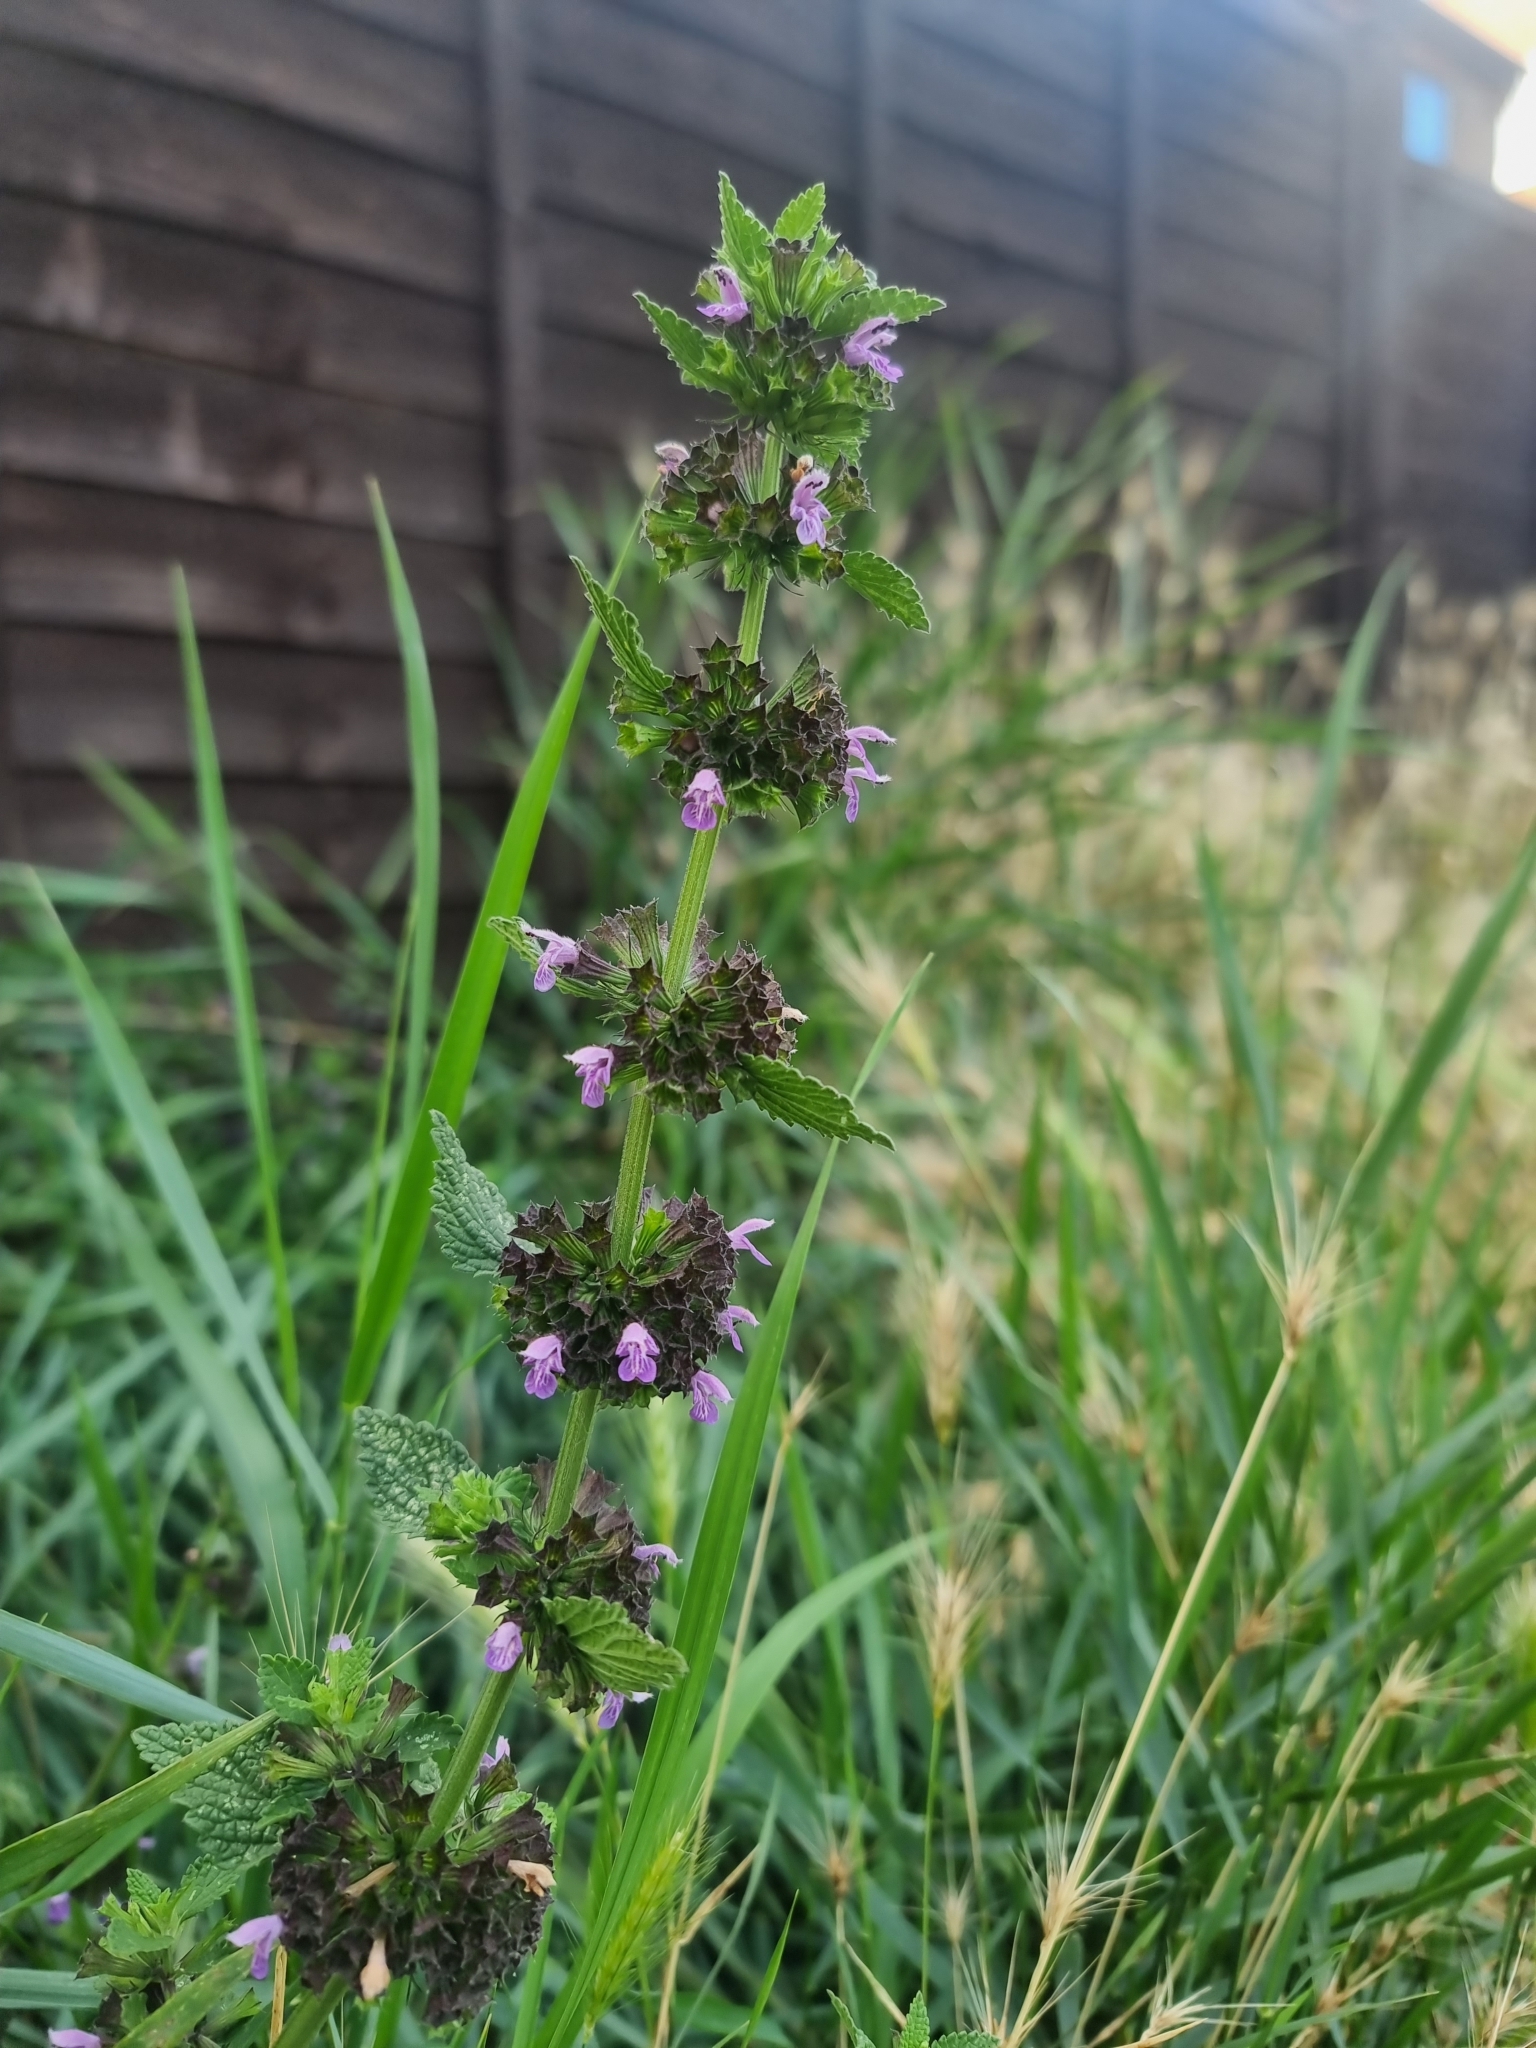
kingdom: Plantae
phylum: Tracheophyta
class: Magnoliopsida
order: Lamiales
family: Lamiaceae
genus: Ballota
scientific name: Ballota nigra
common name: Black horehound
